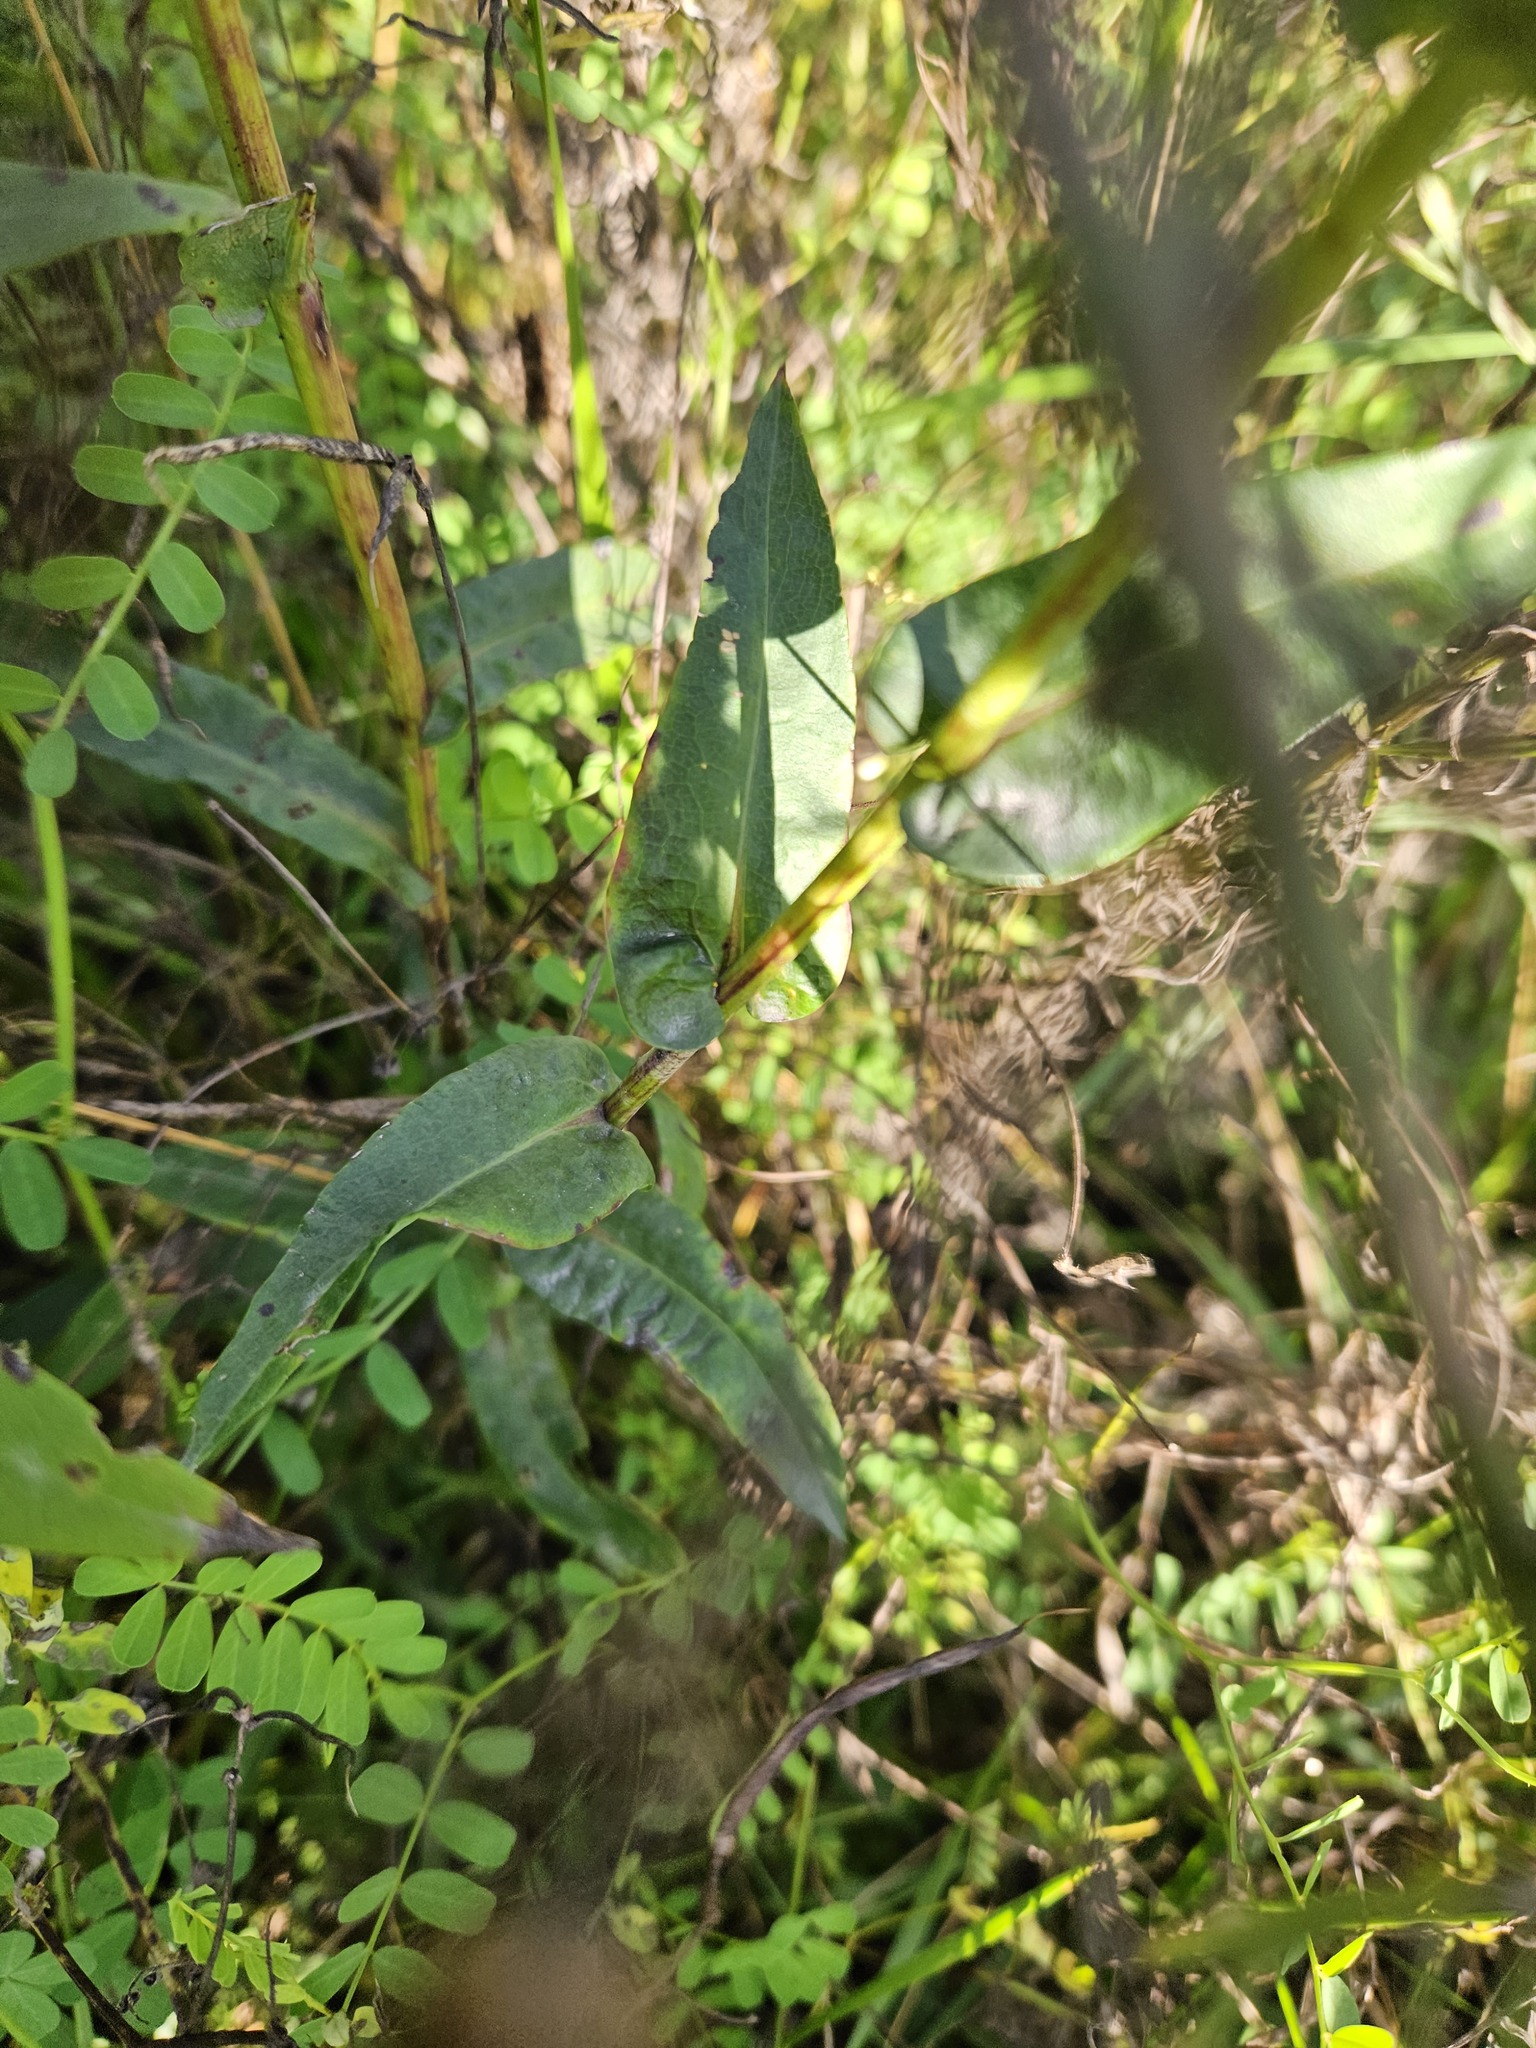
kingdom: Plantae
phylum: Tracheophyta
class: Magnoliopsida
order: Asterales
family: Asteraceae
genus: Symphyotrichum
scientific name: Symphyotrichum laeve
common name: Glaucous aster
